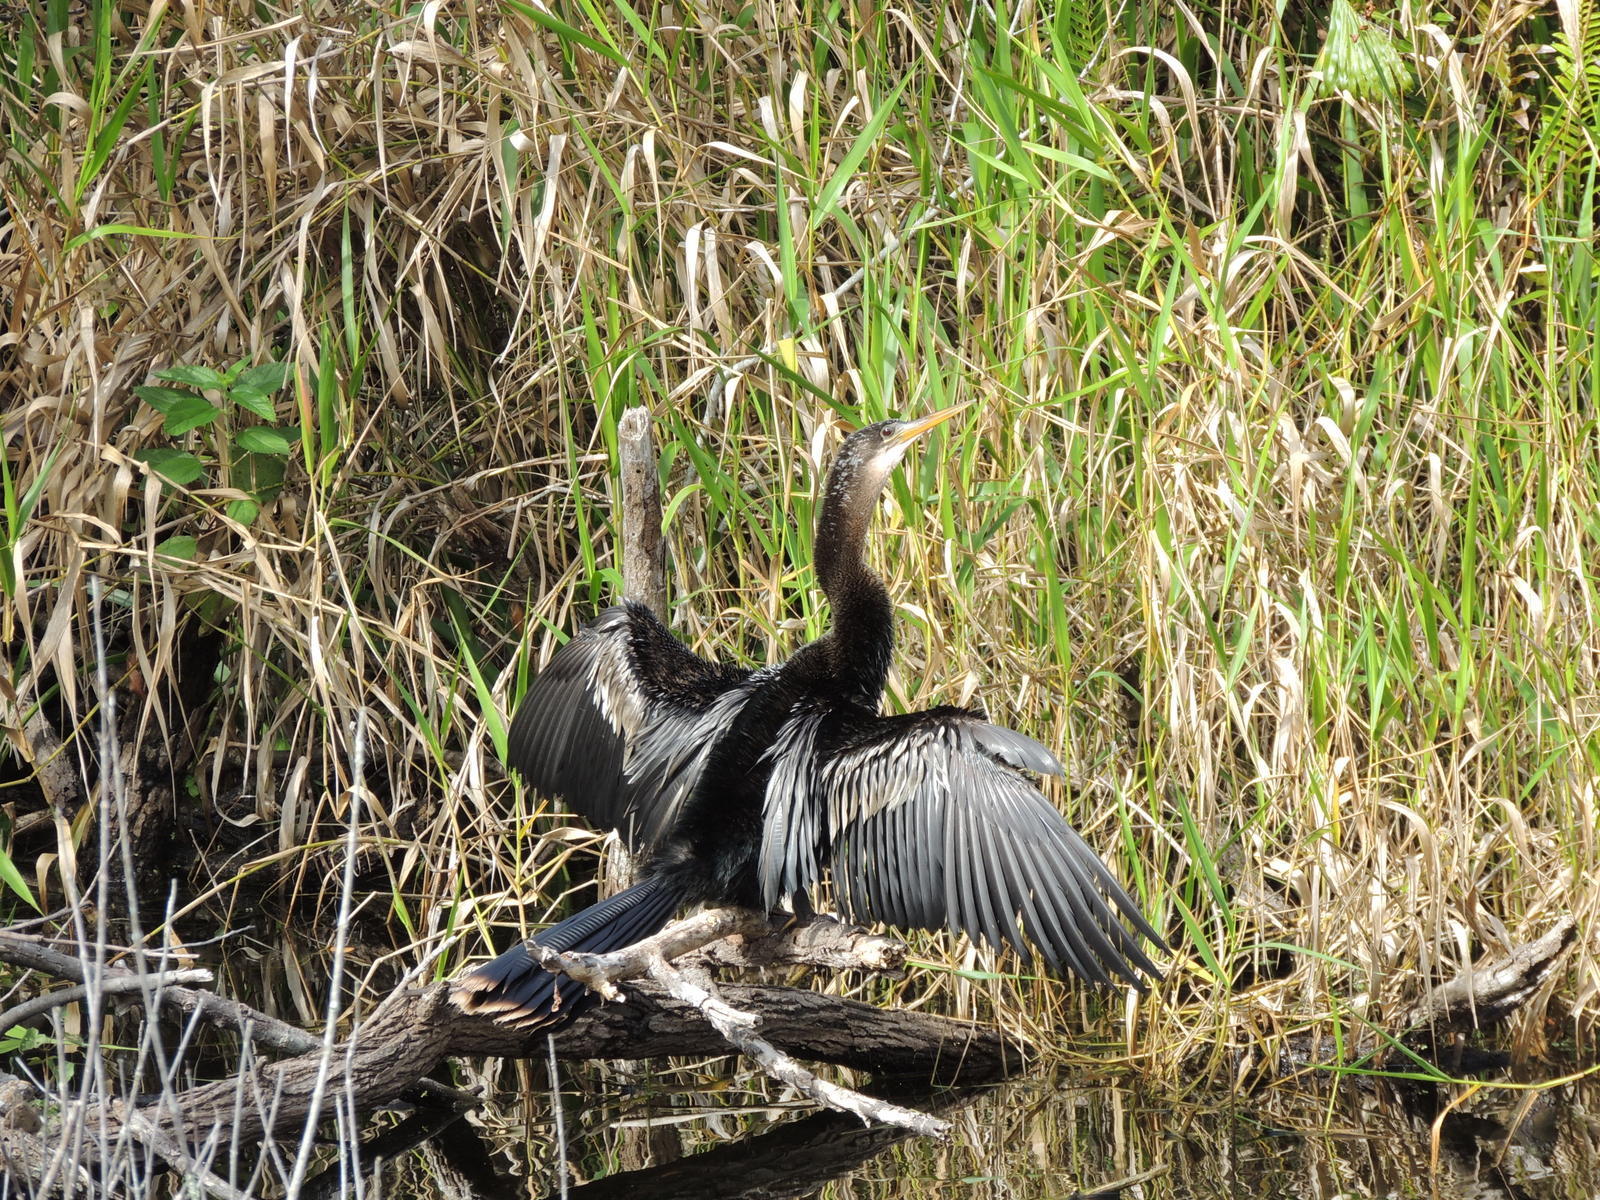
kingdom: Animalia
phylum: Chordata
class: Aves
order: Suliformes
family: Anhingidae
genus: Anhinga
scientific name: Anhinga anhinga
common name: Anhinga
